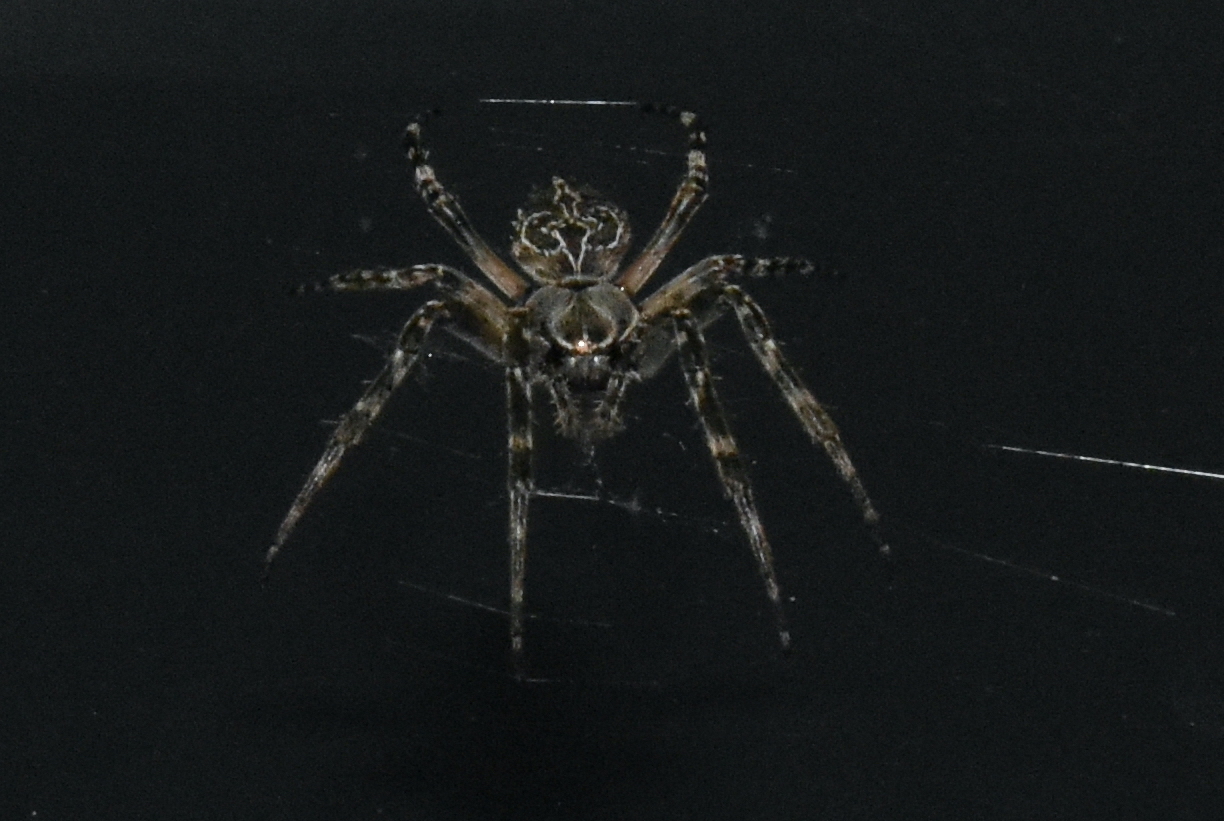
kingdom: Animalia
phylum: Arthropoda
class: Arachnida
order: Araneae
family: Araneidae
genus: Larinioides
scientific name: Larinioides sclopetarius
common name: Bridge orbweaver
